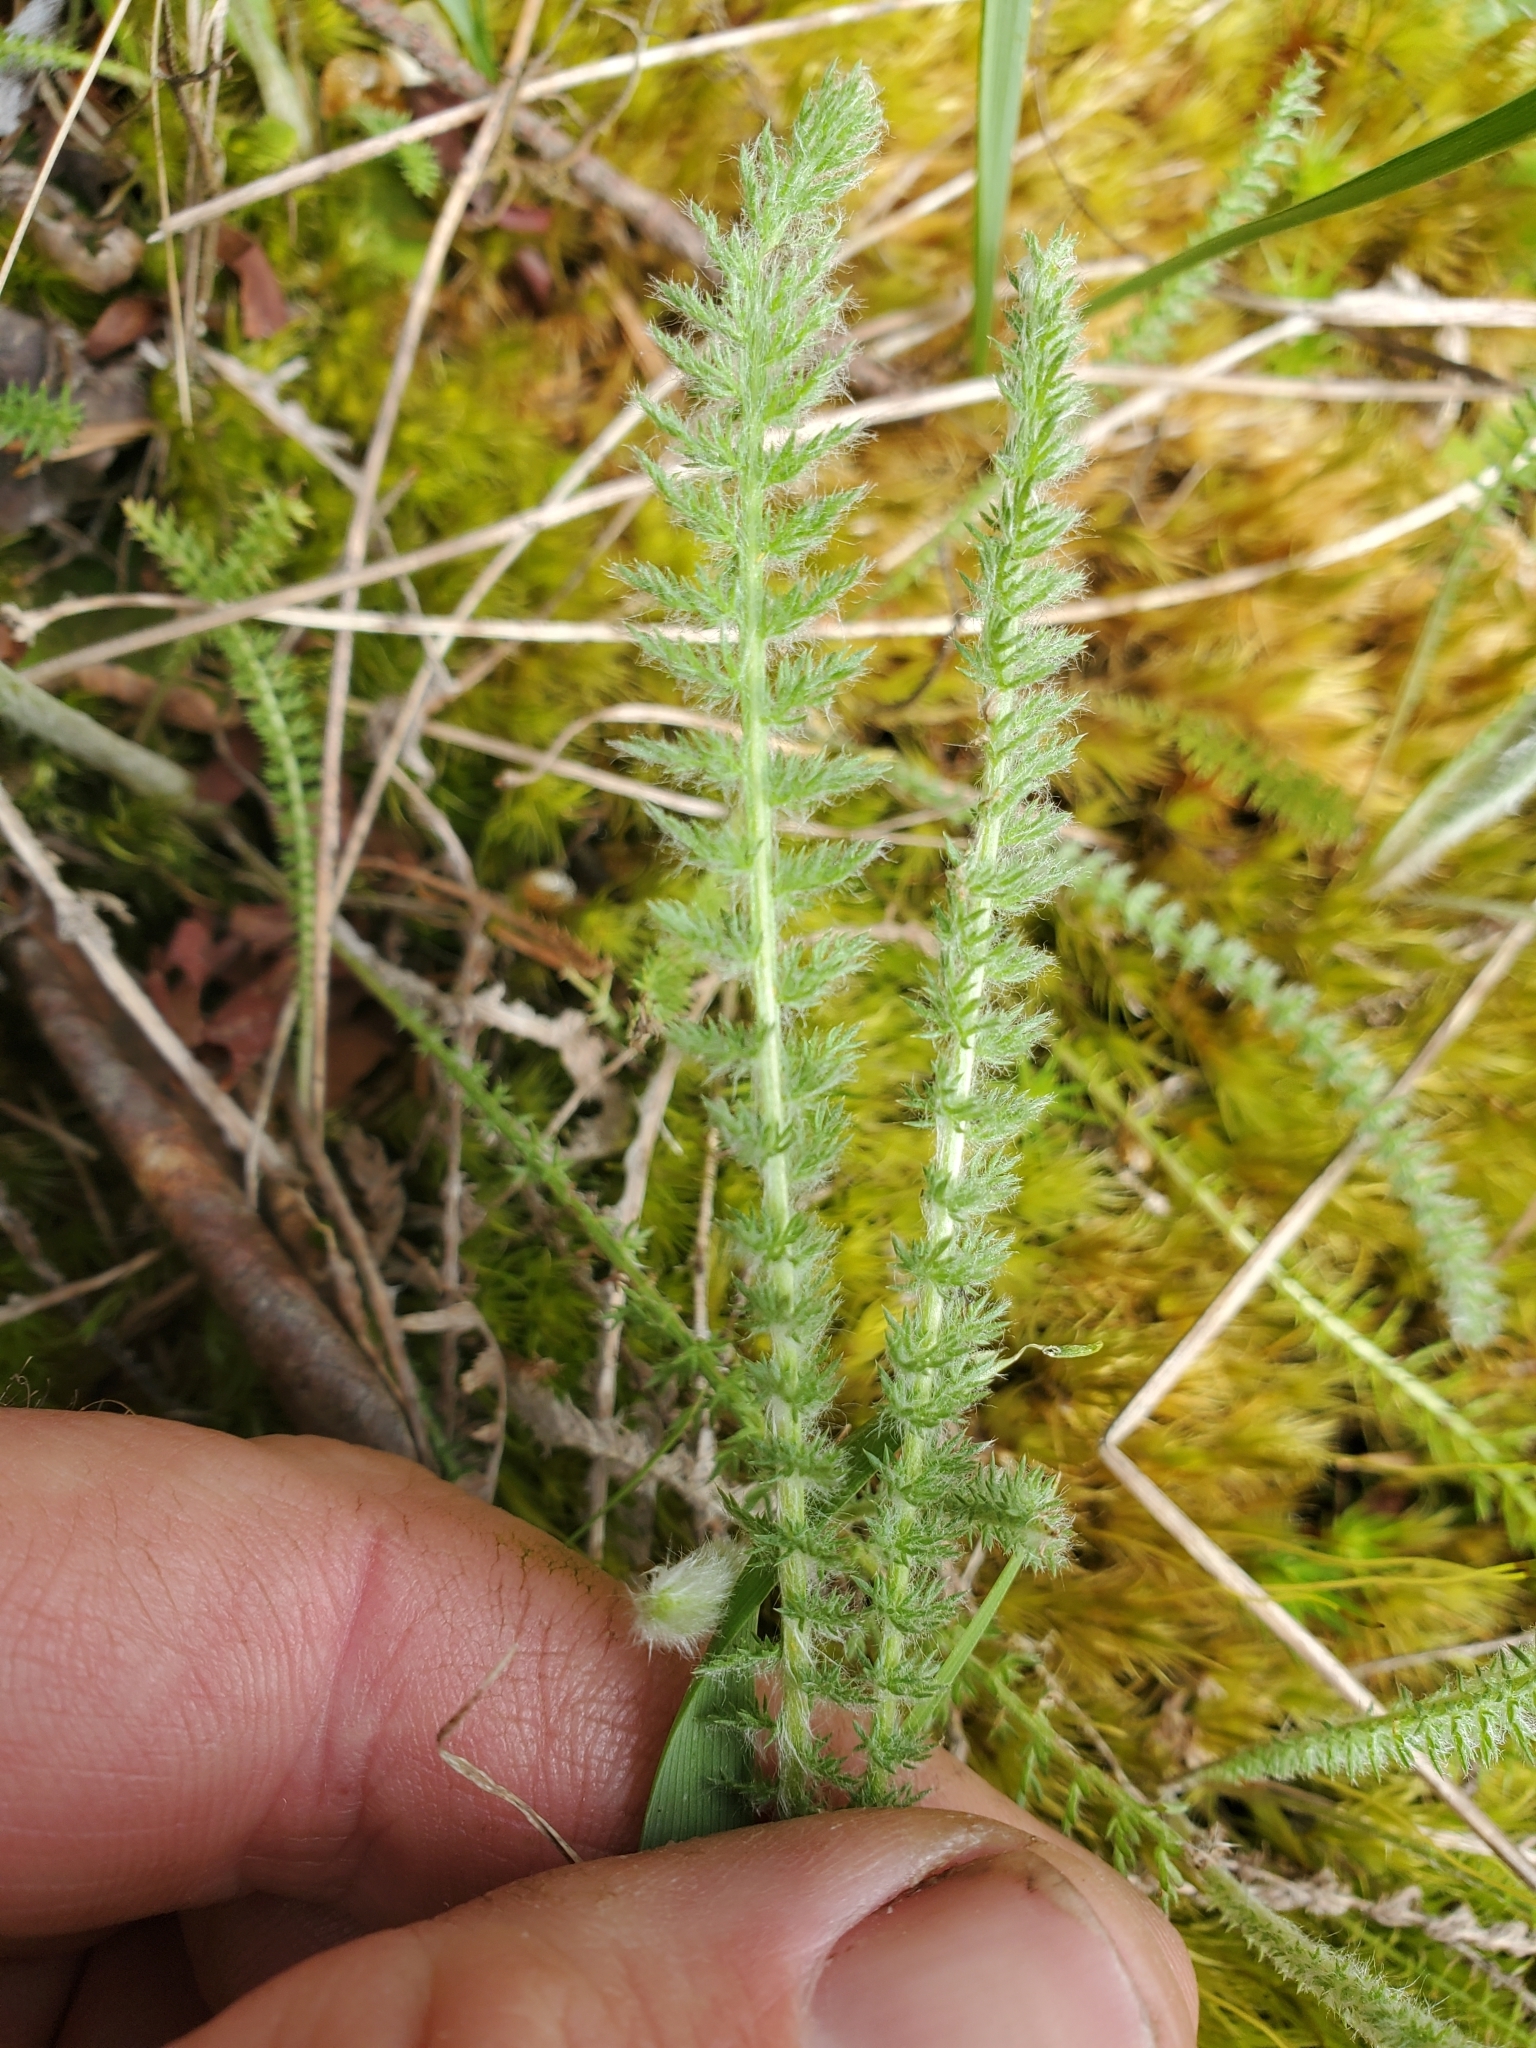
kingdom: Plantae
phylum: Tracheophyta
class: Magnoliopsida
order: Asterales
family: Asteraceae
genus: Achillea
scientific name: Achillea millefolium
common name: Yarrow
